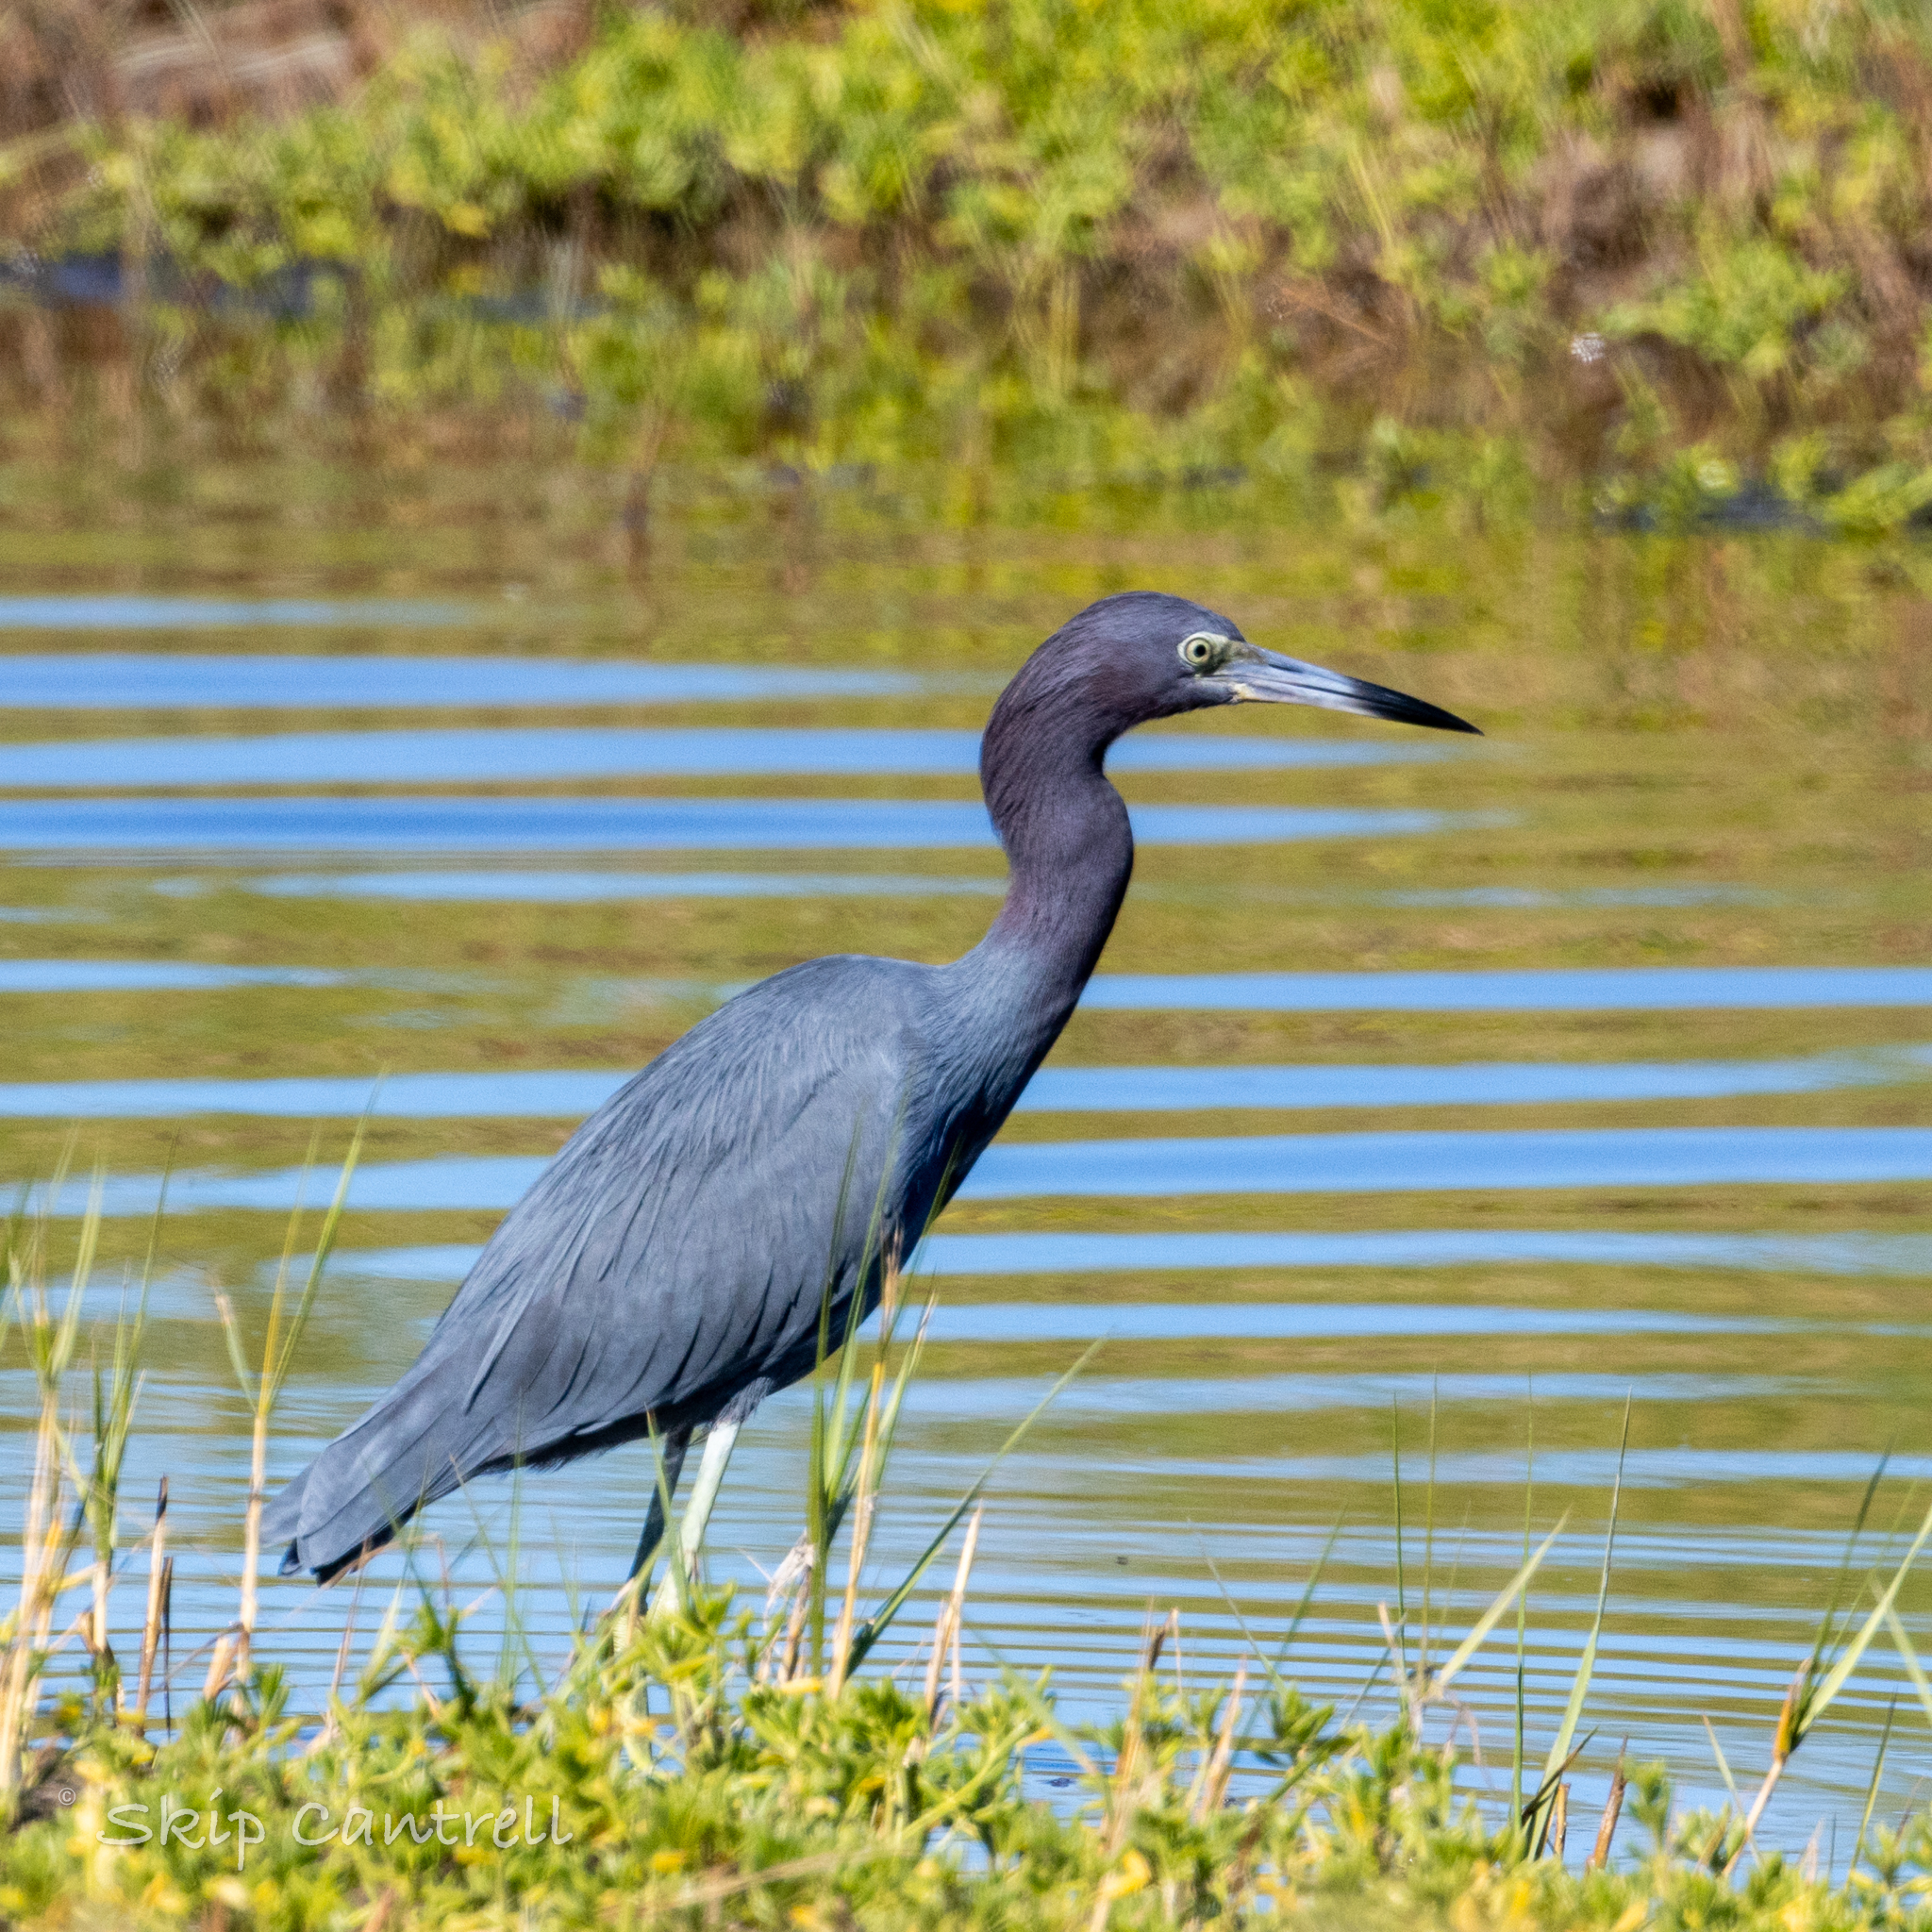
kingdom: Animalia
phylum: Chordata
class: Aves
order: Pelecaniformes
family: Ardeidae
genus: Egretta
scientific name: Egretta caerulea
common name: Little blue heron
